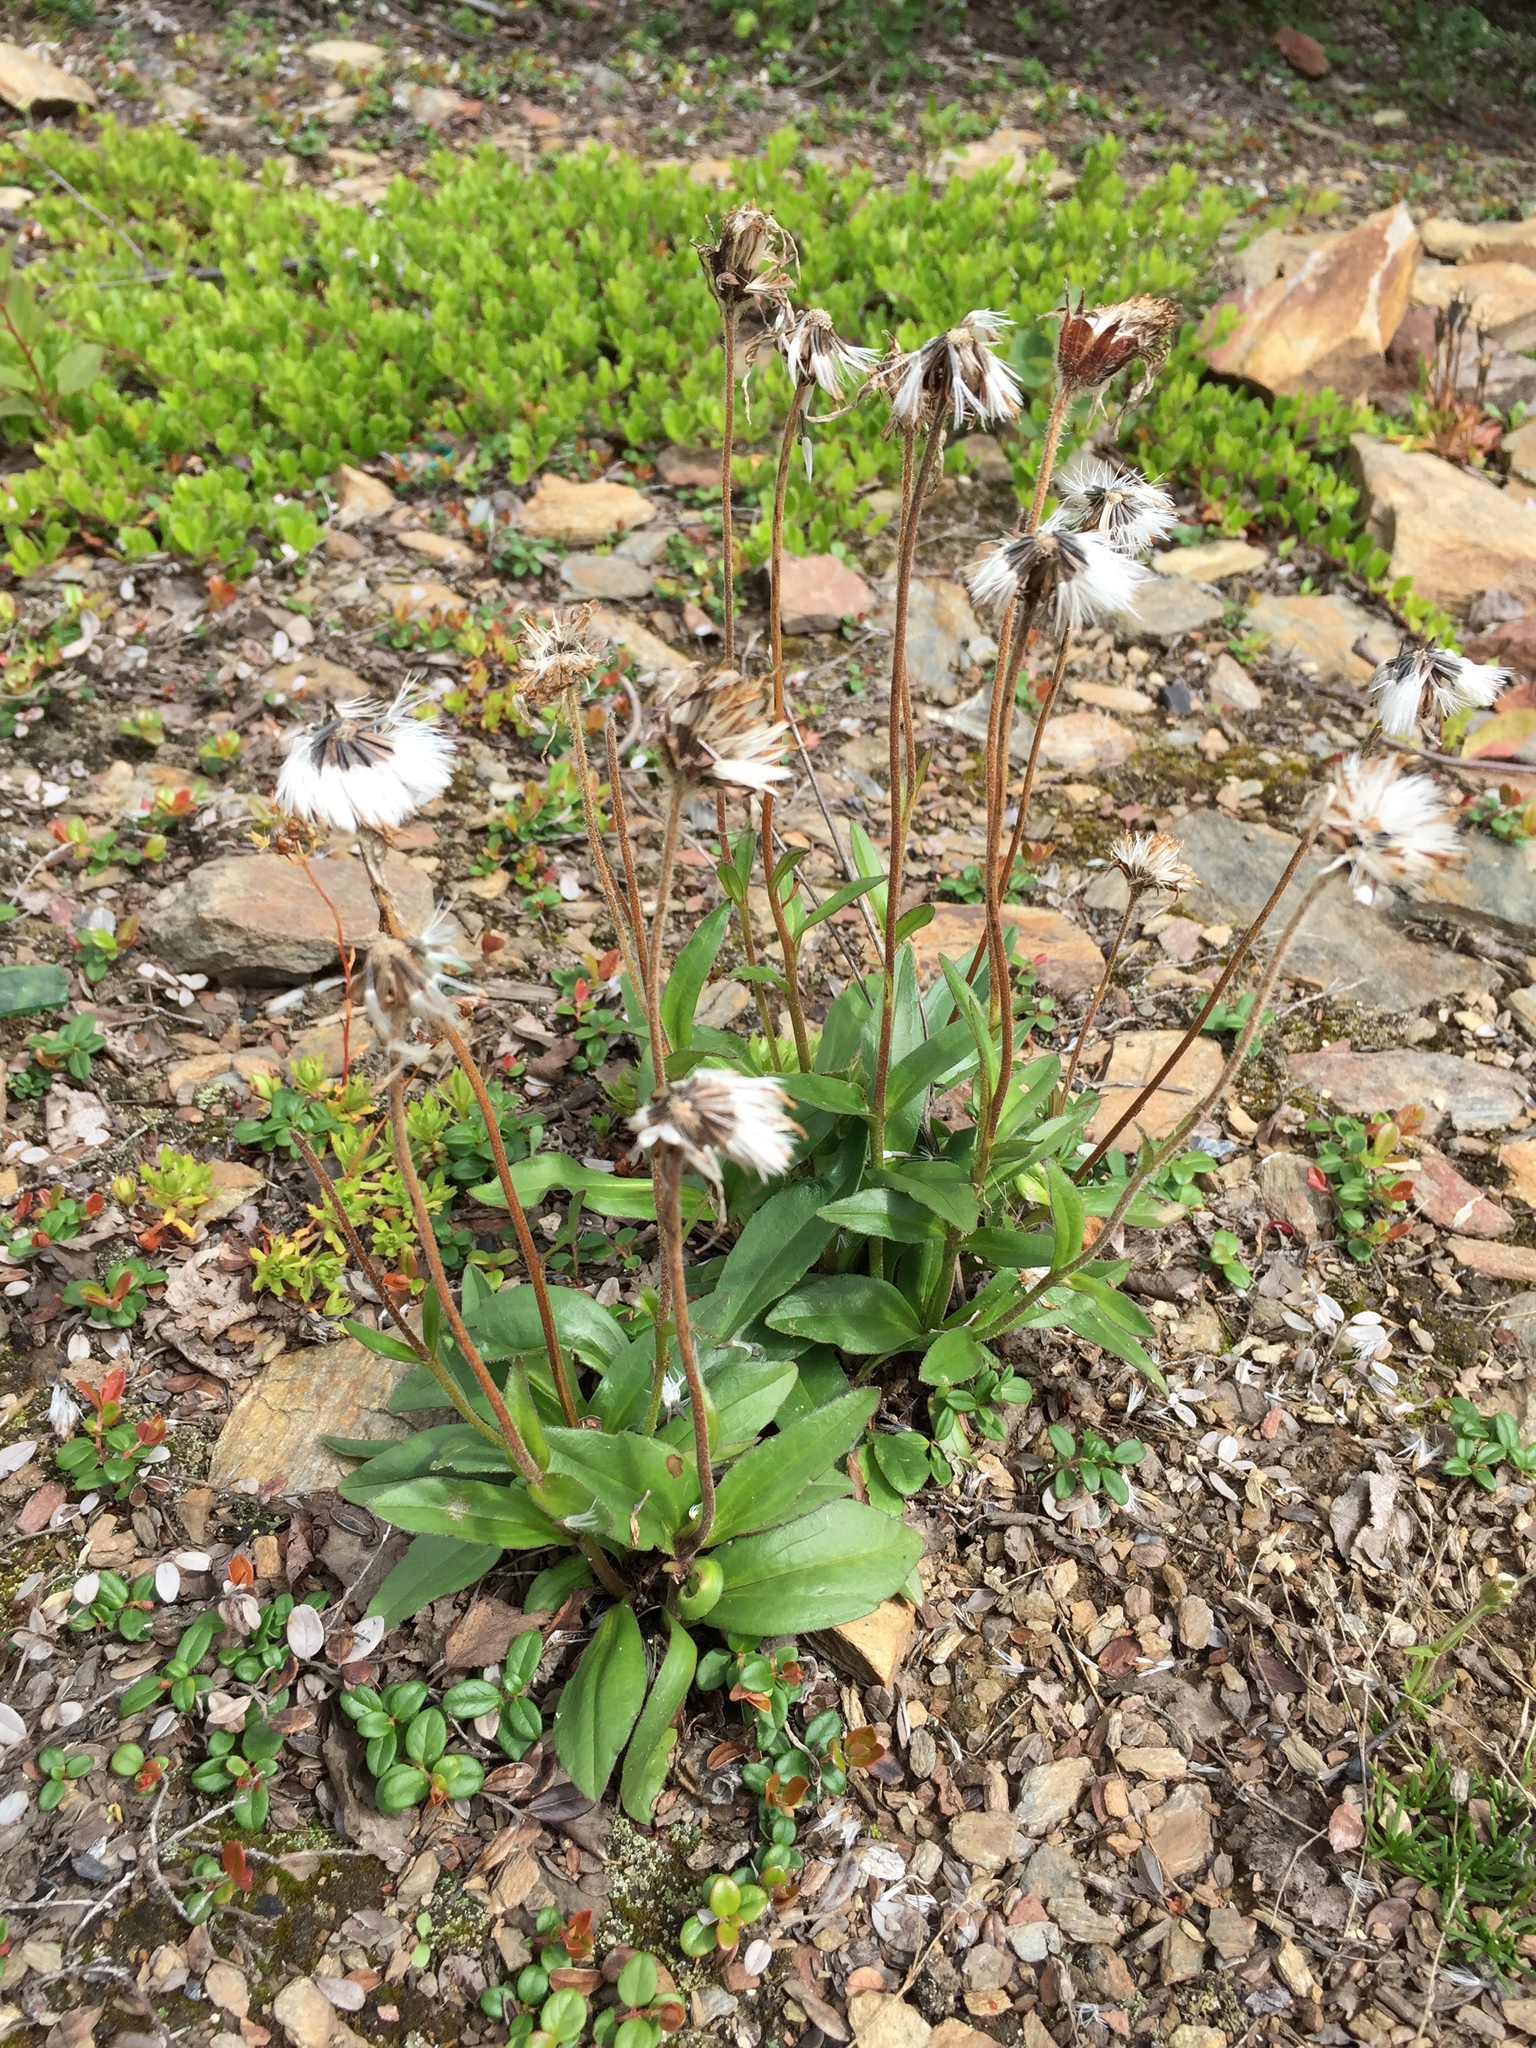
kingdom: Plantae
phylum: Tracheophyta
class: Magnoliopsida
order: Asterales
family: Asteraceae
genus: Arnica
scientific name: Arnica griscomii
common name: Snow arnica
